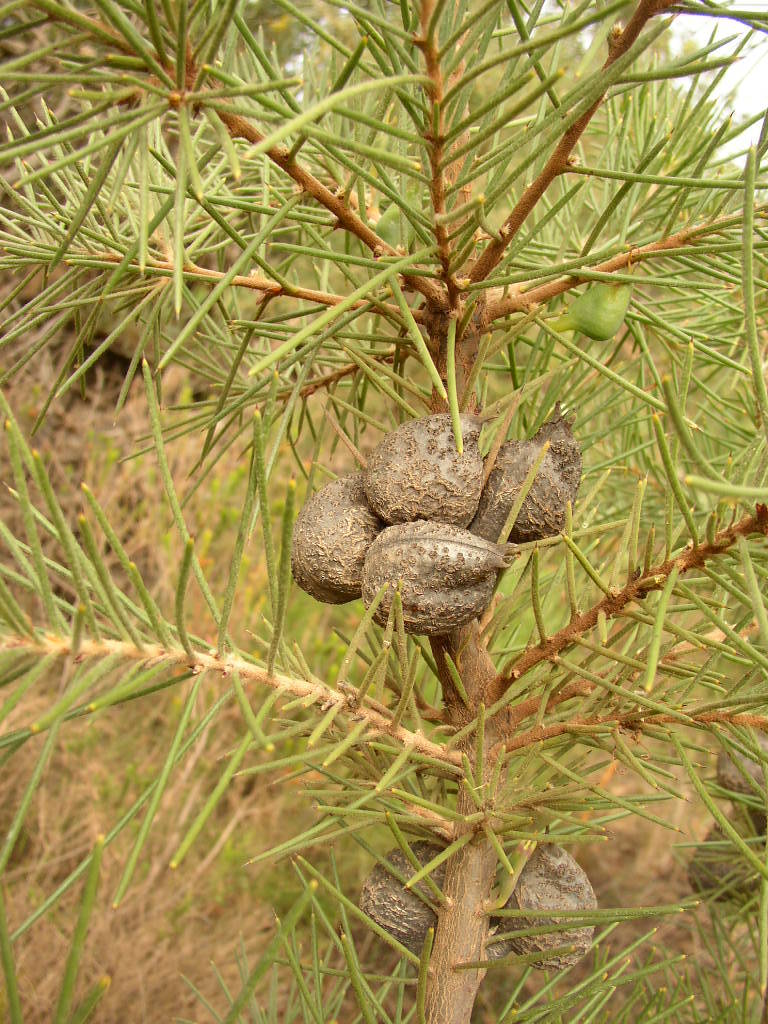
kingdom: Plantae
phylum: Tracheophyta
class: Magnoliopsida
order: Proteales
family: Proteaceae
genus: Hakea
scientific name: Hakea gibbosa
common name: Rock hakea
